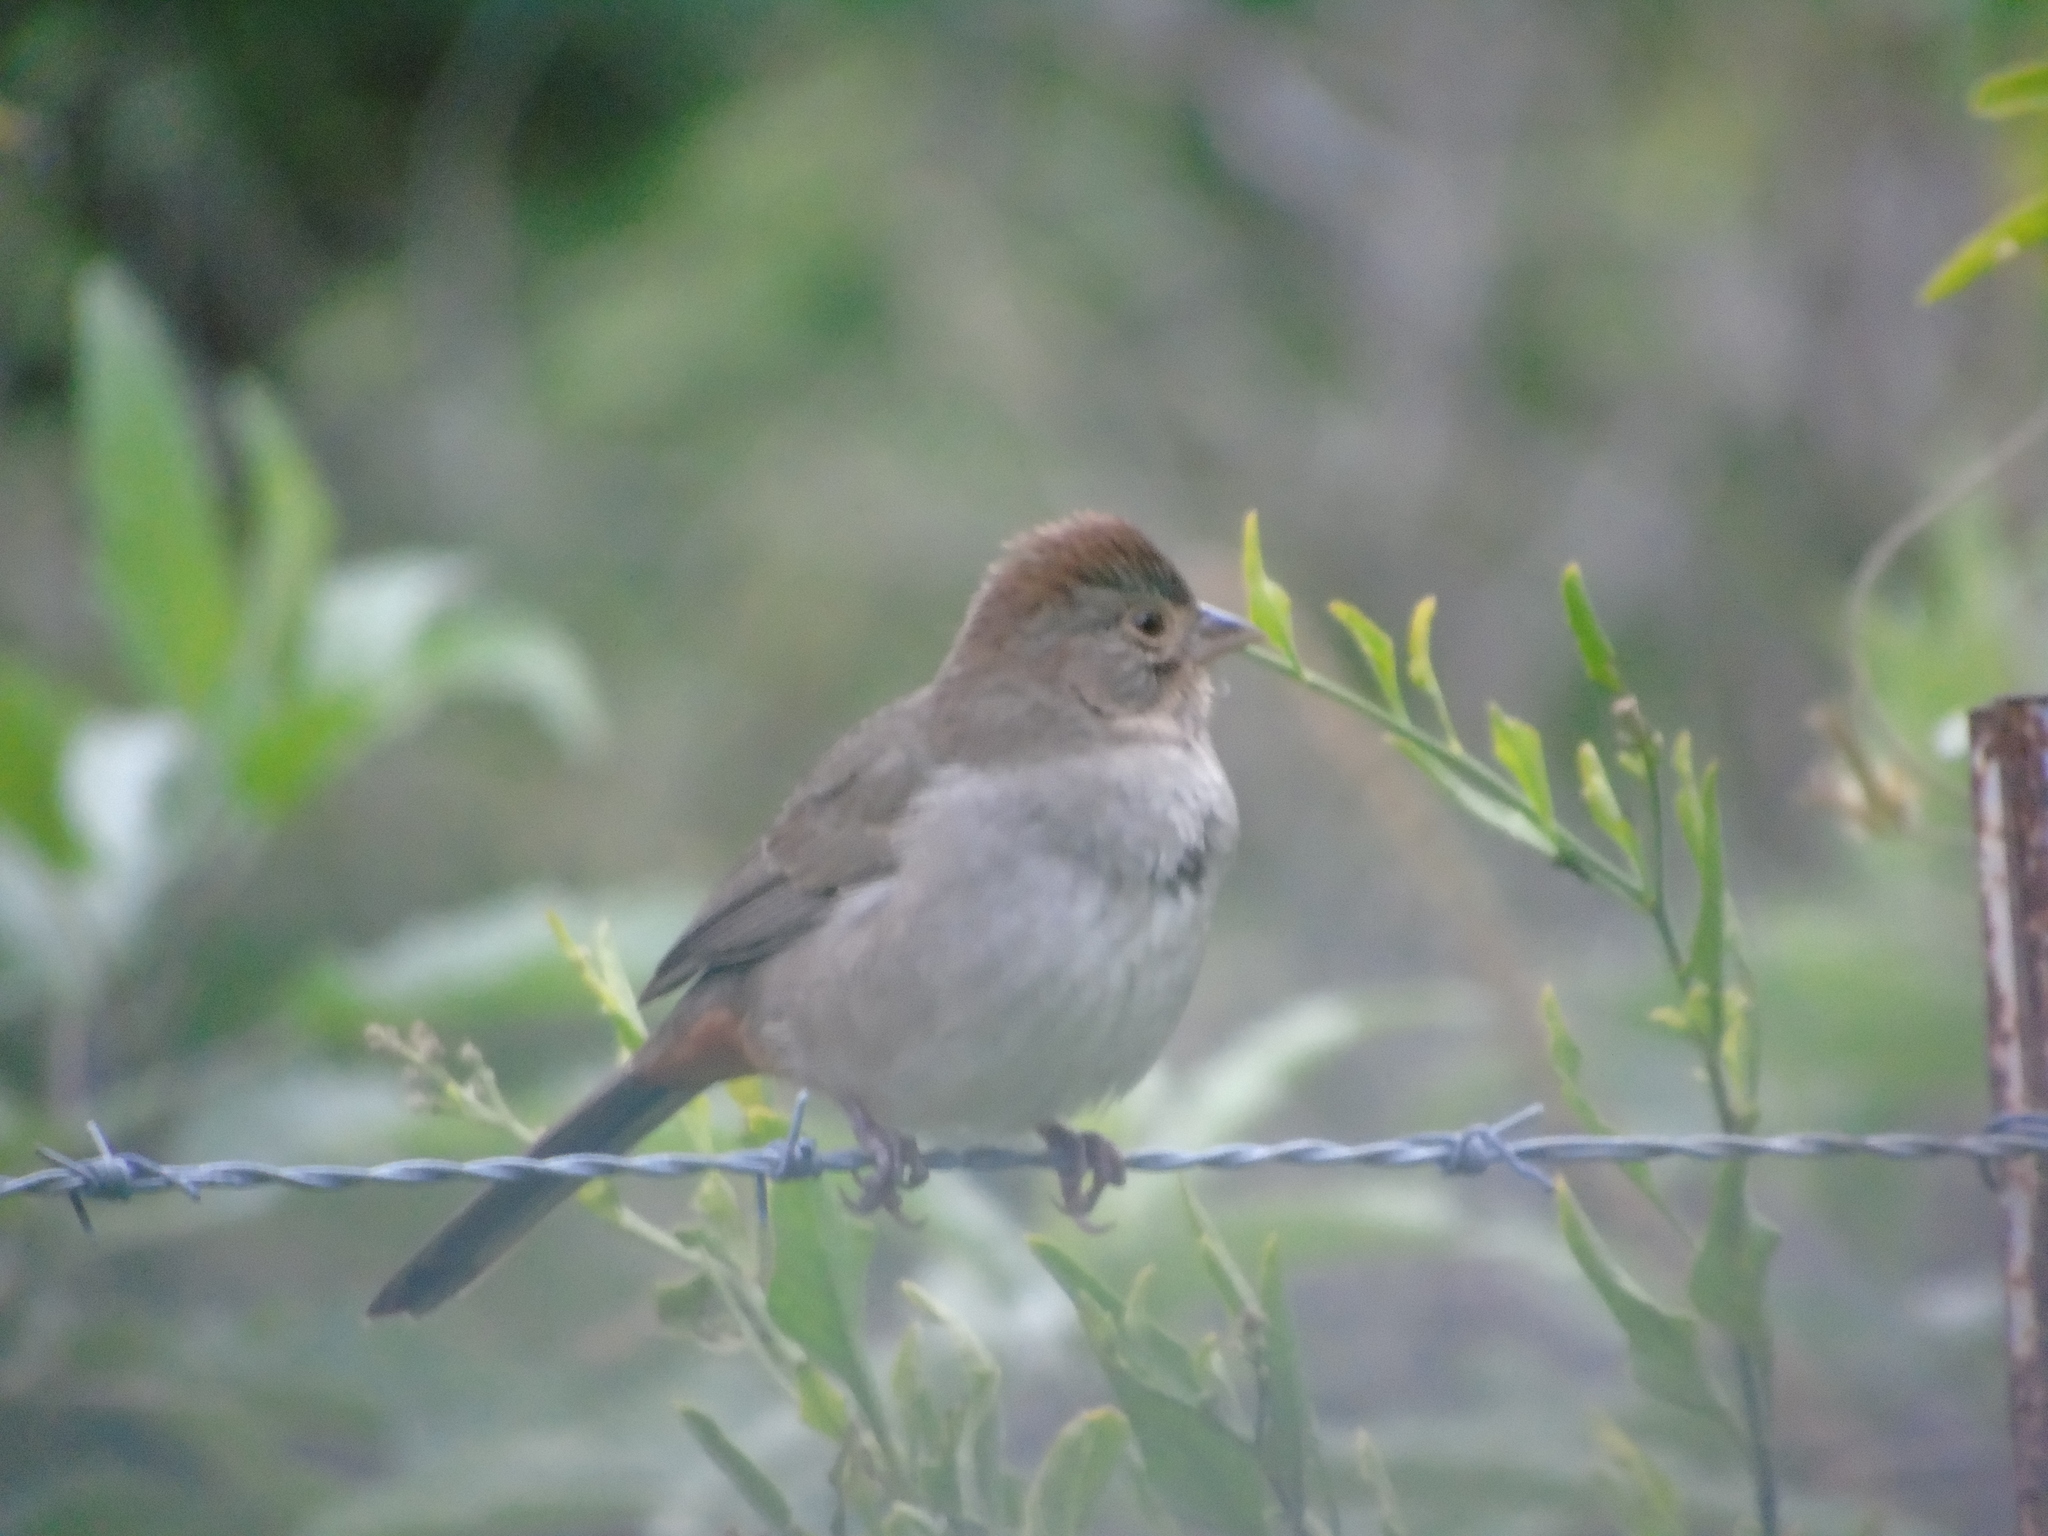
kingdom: Animalia
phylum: Chordata
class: Aves
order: Passeriformes
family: Passerellidae
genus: Melozone
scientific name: Melozone crissalis
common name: California towhee
